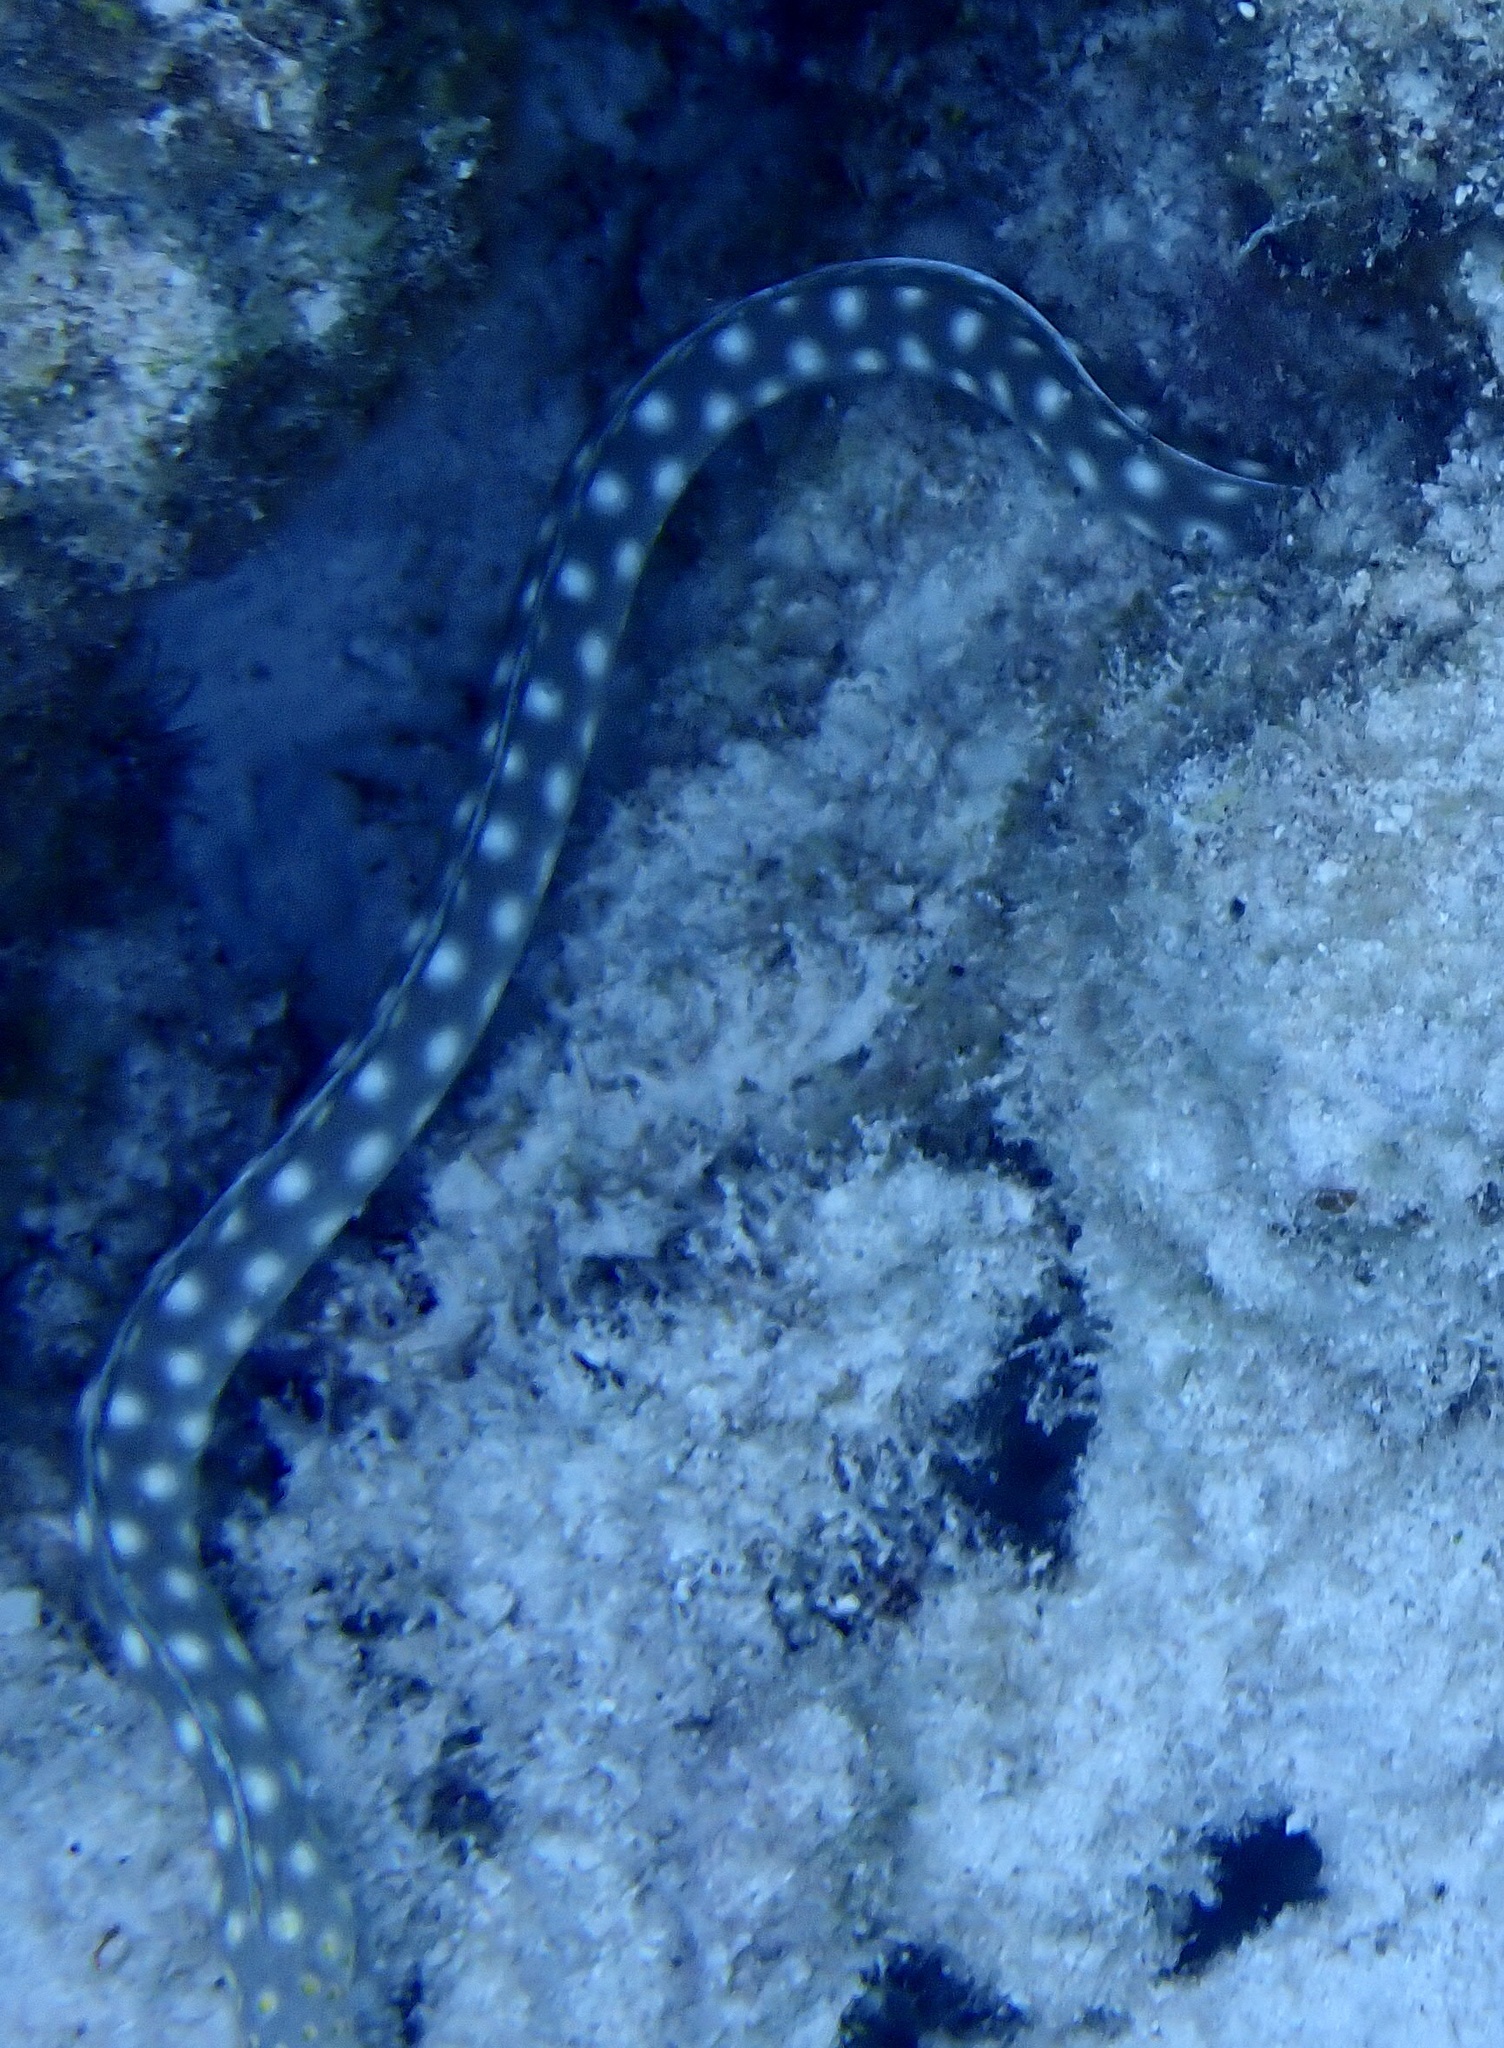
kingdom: Animalia
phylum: Chordata
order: Anguilliformes
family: Ophichthidae
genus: Myrichthys
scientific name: Myrichthys breviceps
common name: Sharptail eel
